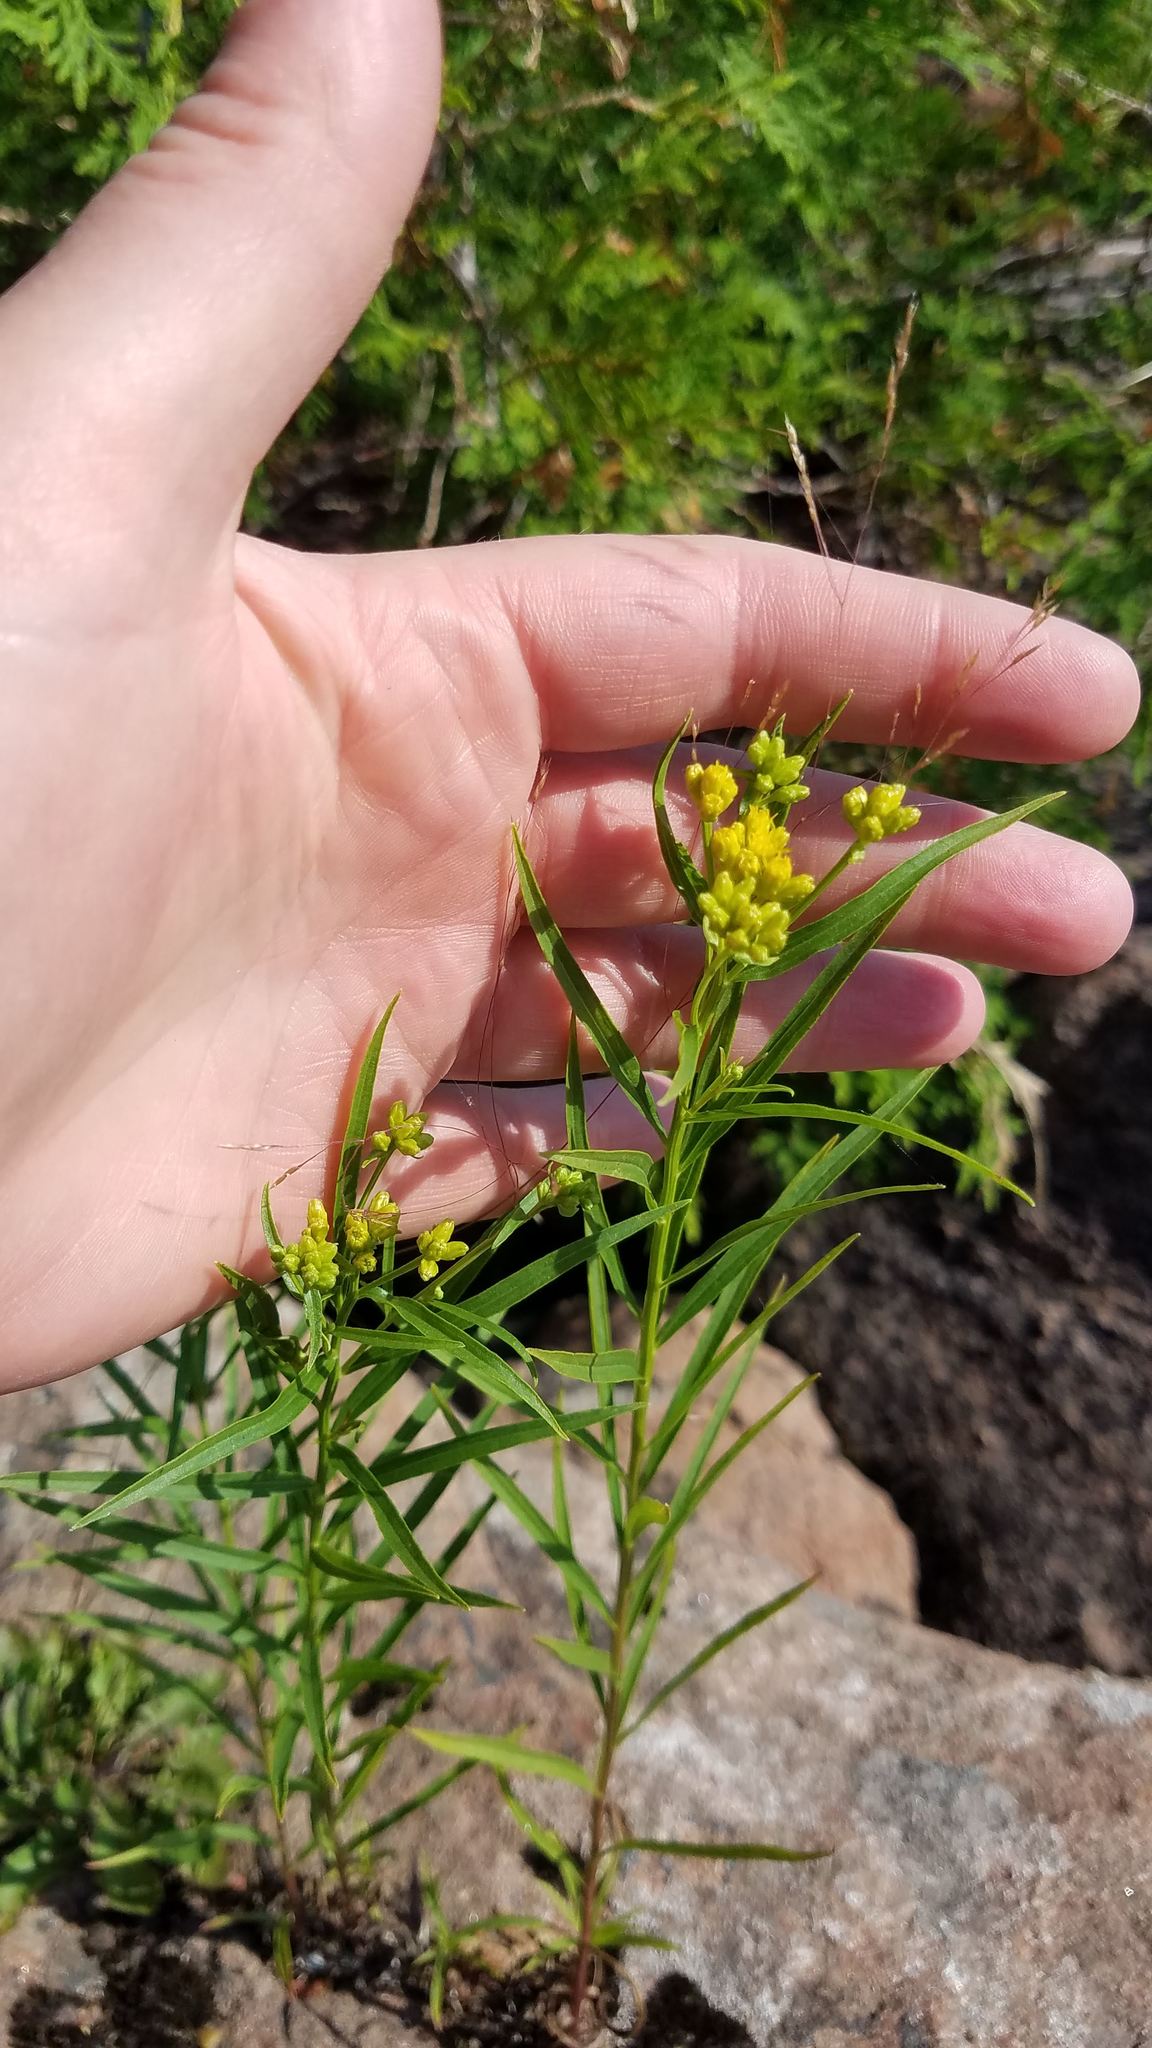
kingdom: Plantae
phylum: Tracheophyta
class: Magnoliopsida
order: Asterales
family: Asteraceae
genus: Euthamia
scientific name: Euthamia graminifolia
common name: Common goldentop
